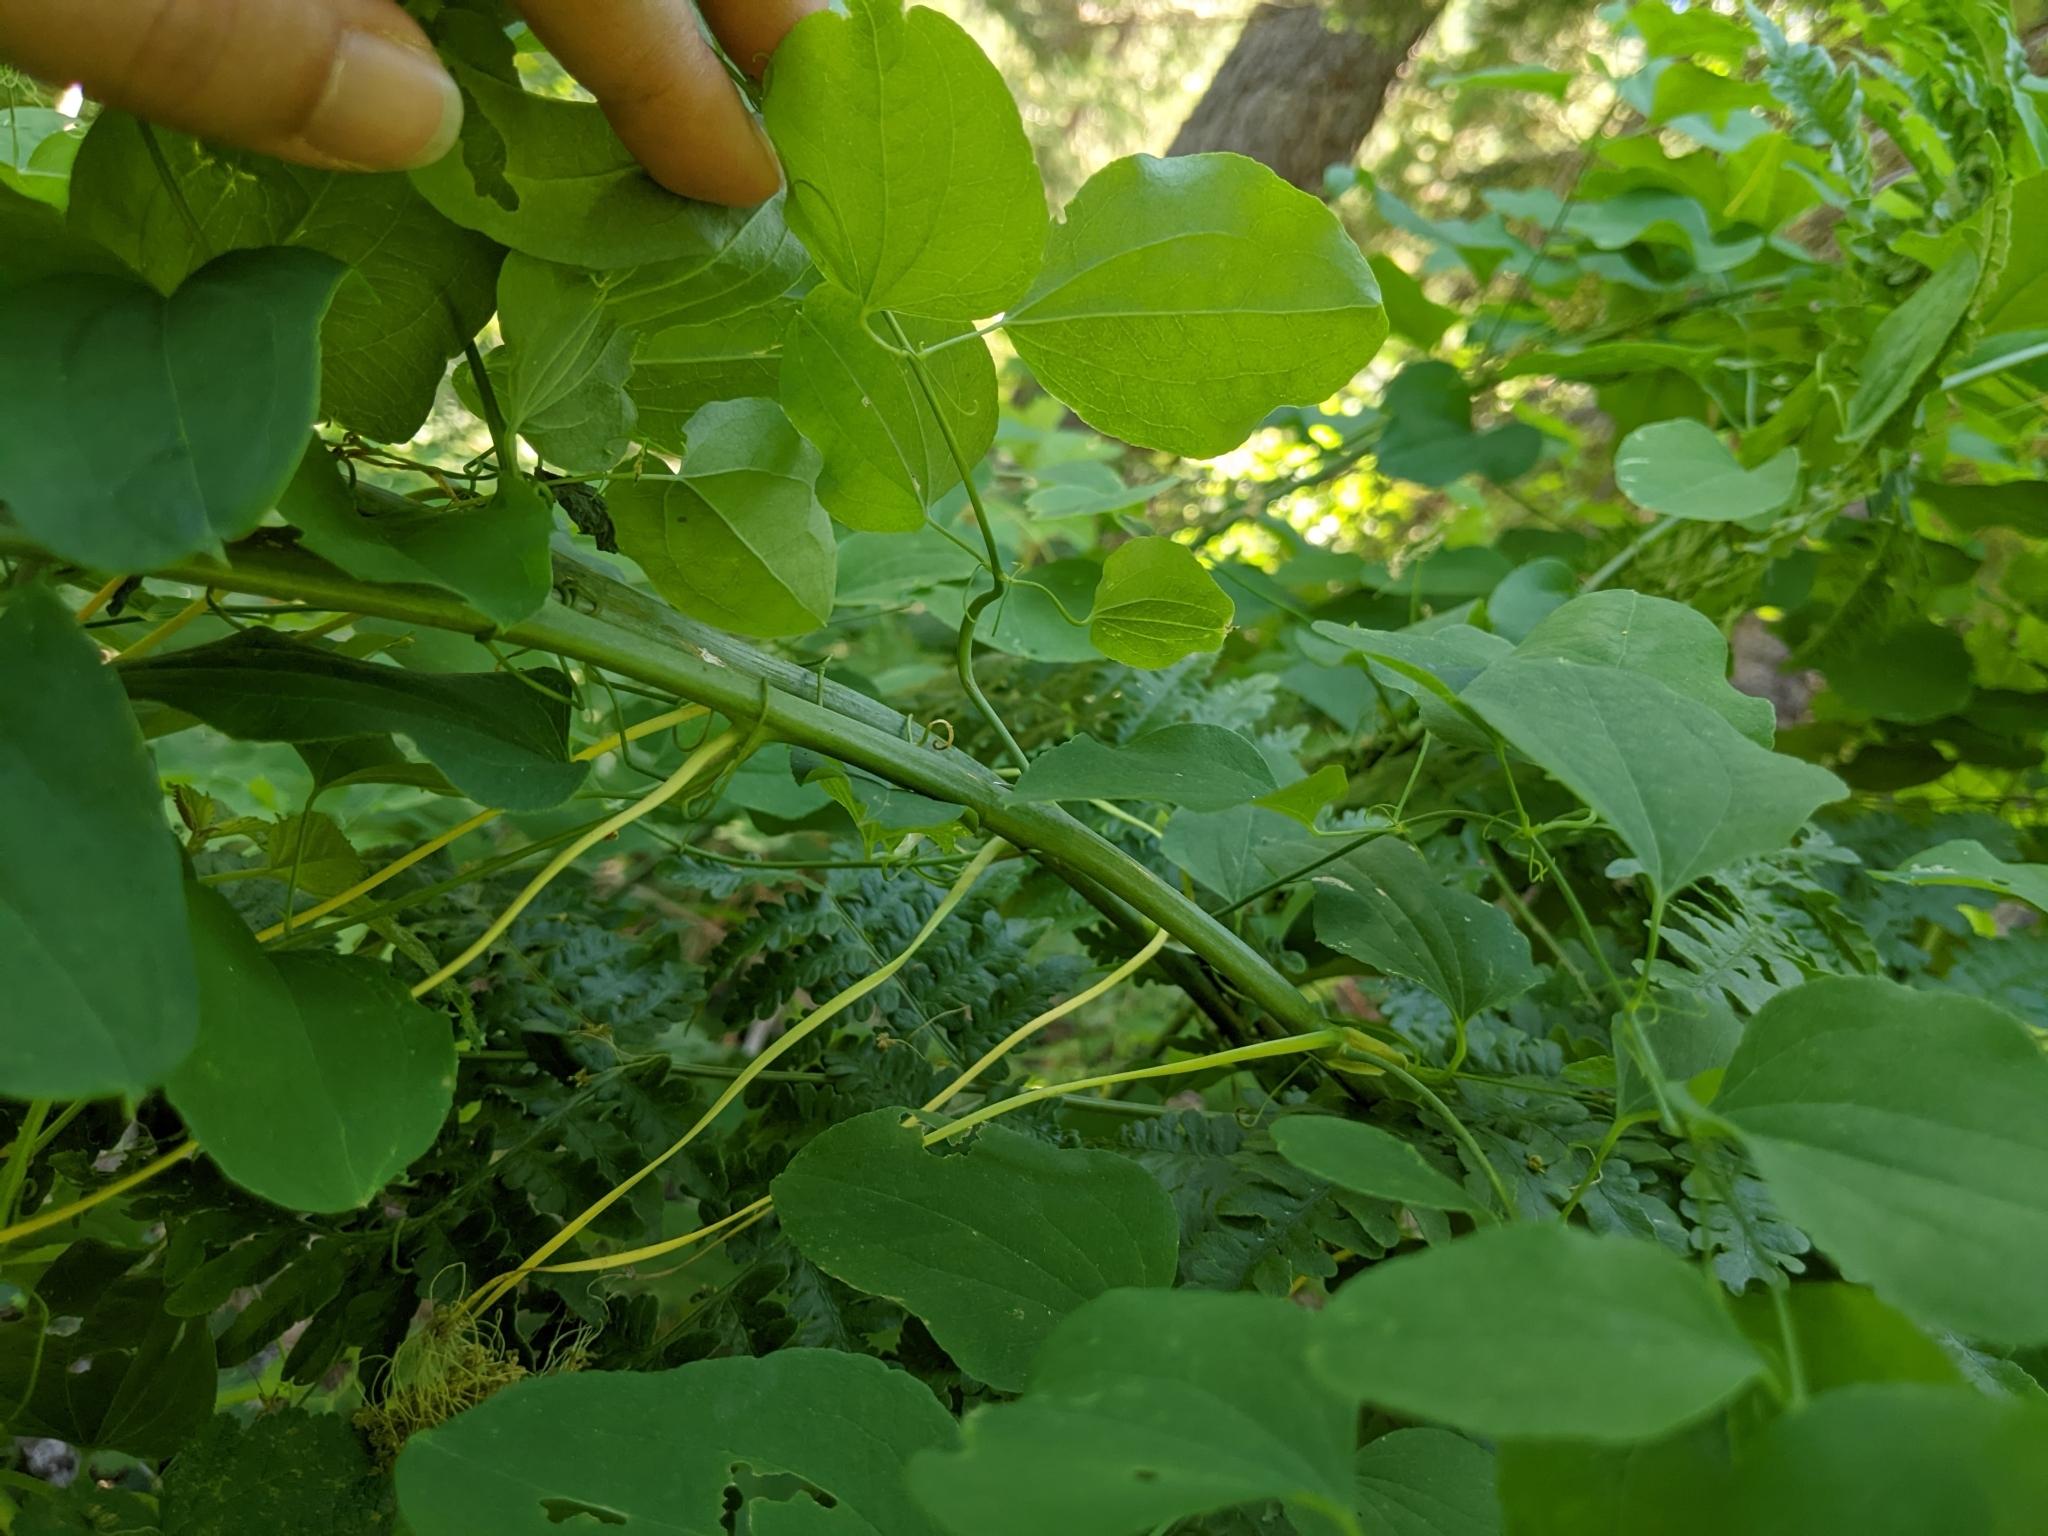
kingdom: Plantae
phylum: Tracheophyta
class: Liliopsida
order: Liliales
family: Smilacaceae
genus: Smilax
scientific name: Smilax jamesii
